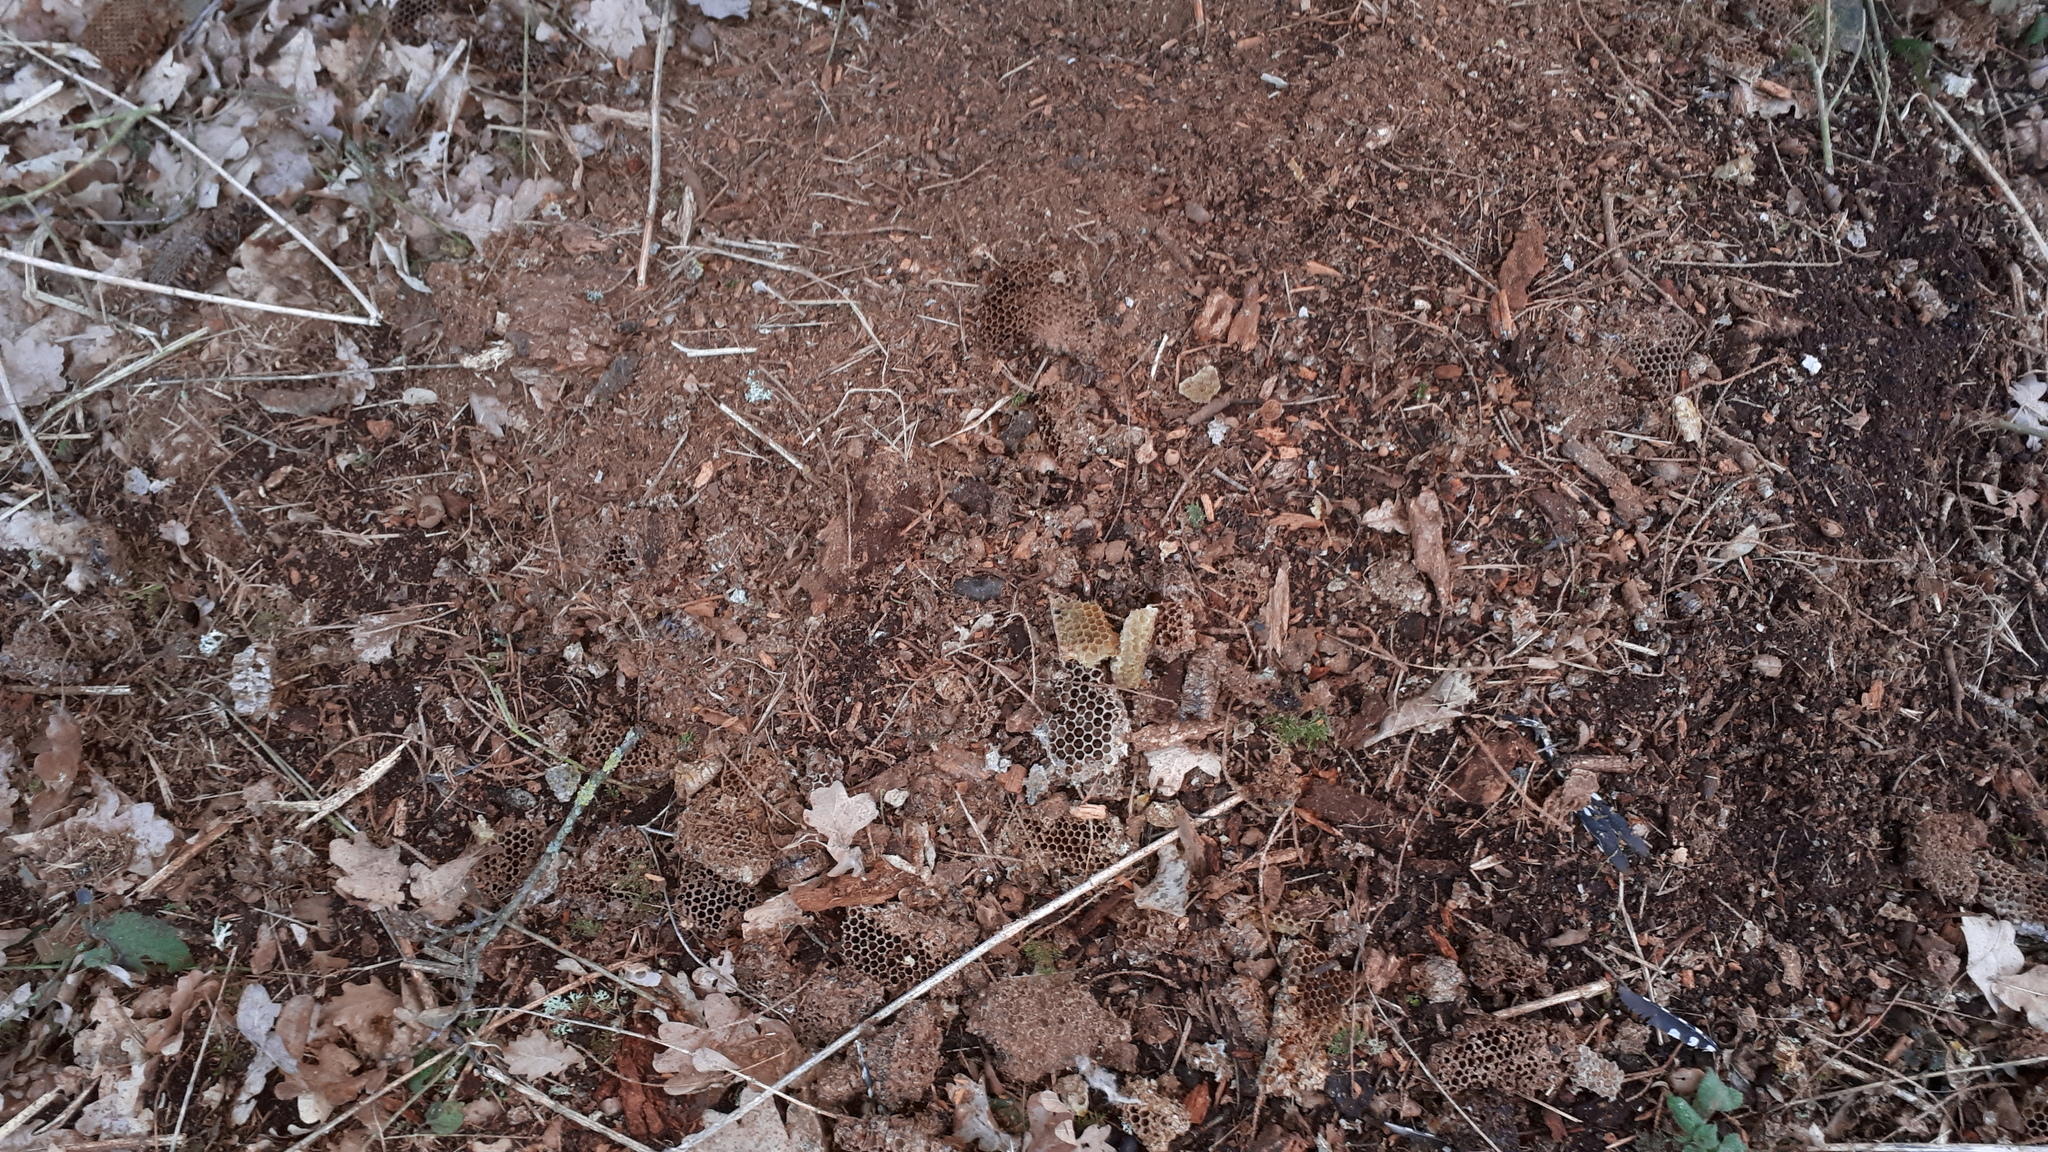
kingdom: Animalia
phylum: Chordata
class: Aves
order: Piciformes
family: Picidae
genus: Dendrocopos
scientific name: Dendrocopos major
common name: Great spotted woodpecker
